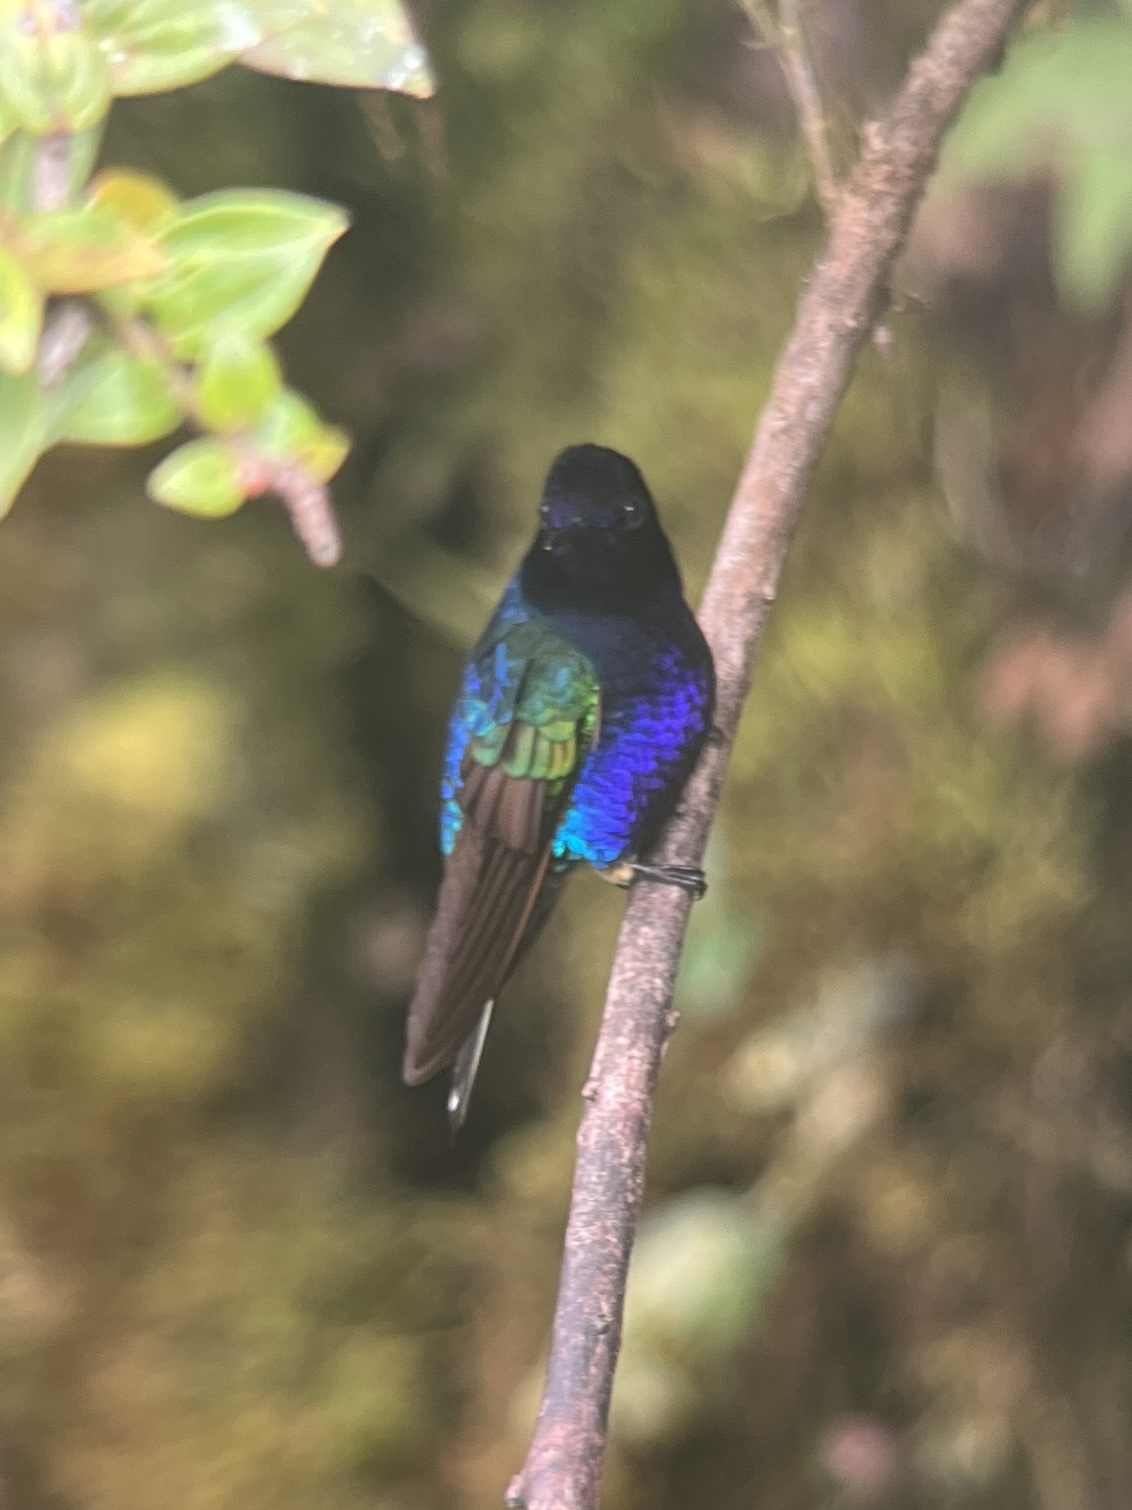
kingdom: Animalia
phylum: Chordata
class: Aves
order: Apodiformes
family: Trochilidae
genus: Boissonneaua
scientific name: Boissonneaua jardini
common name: Velvet-purple coronet
